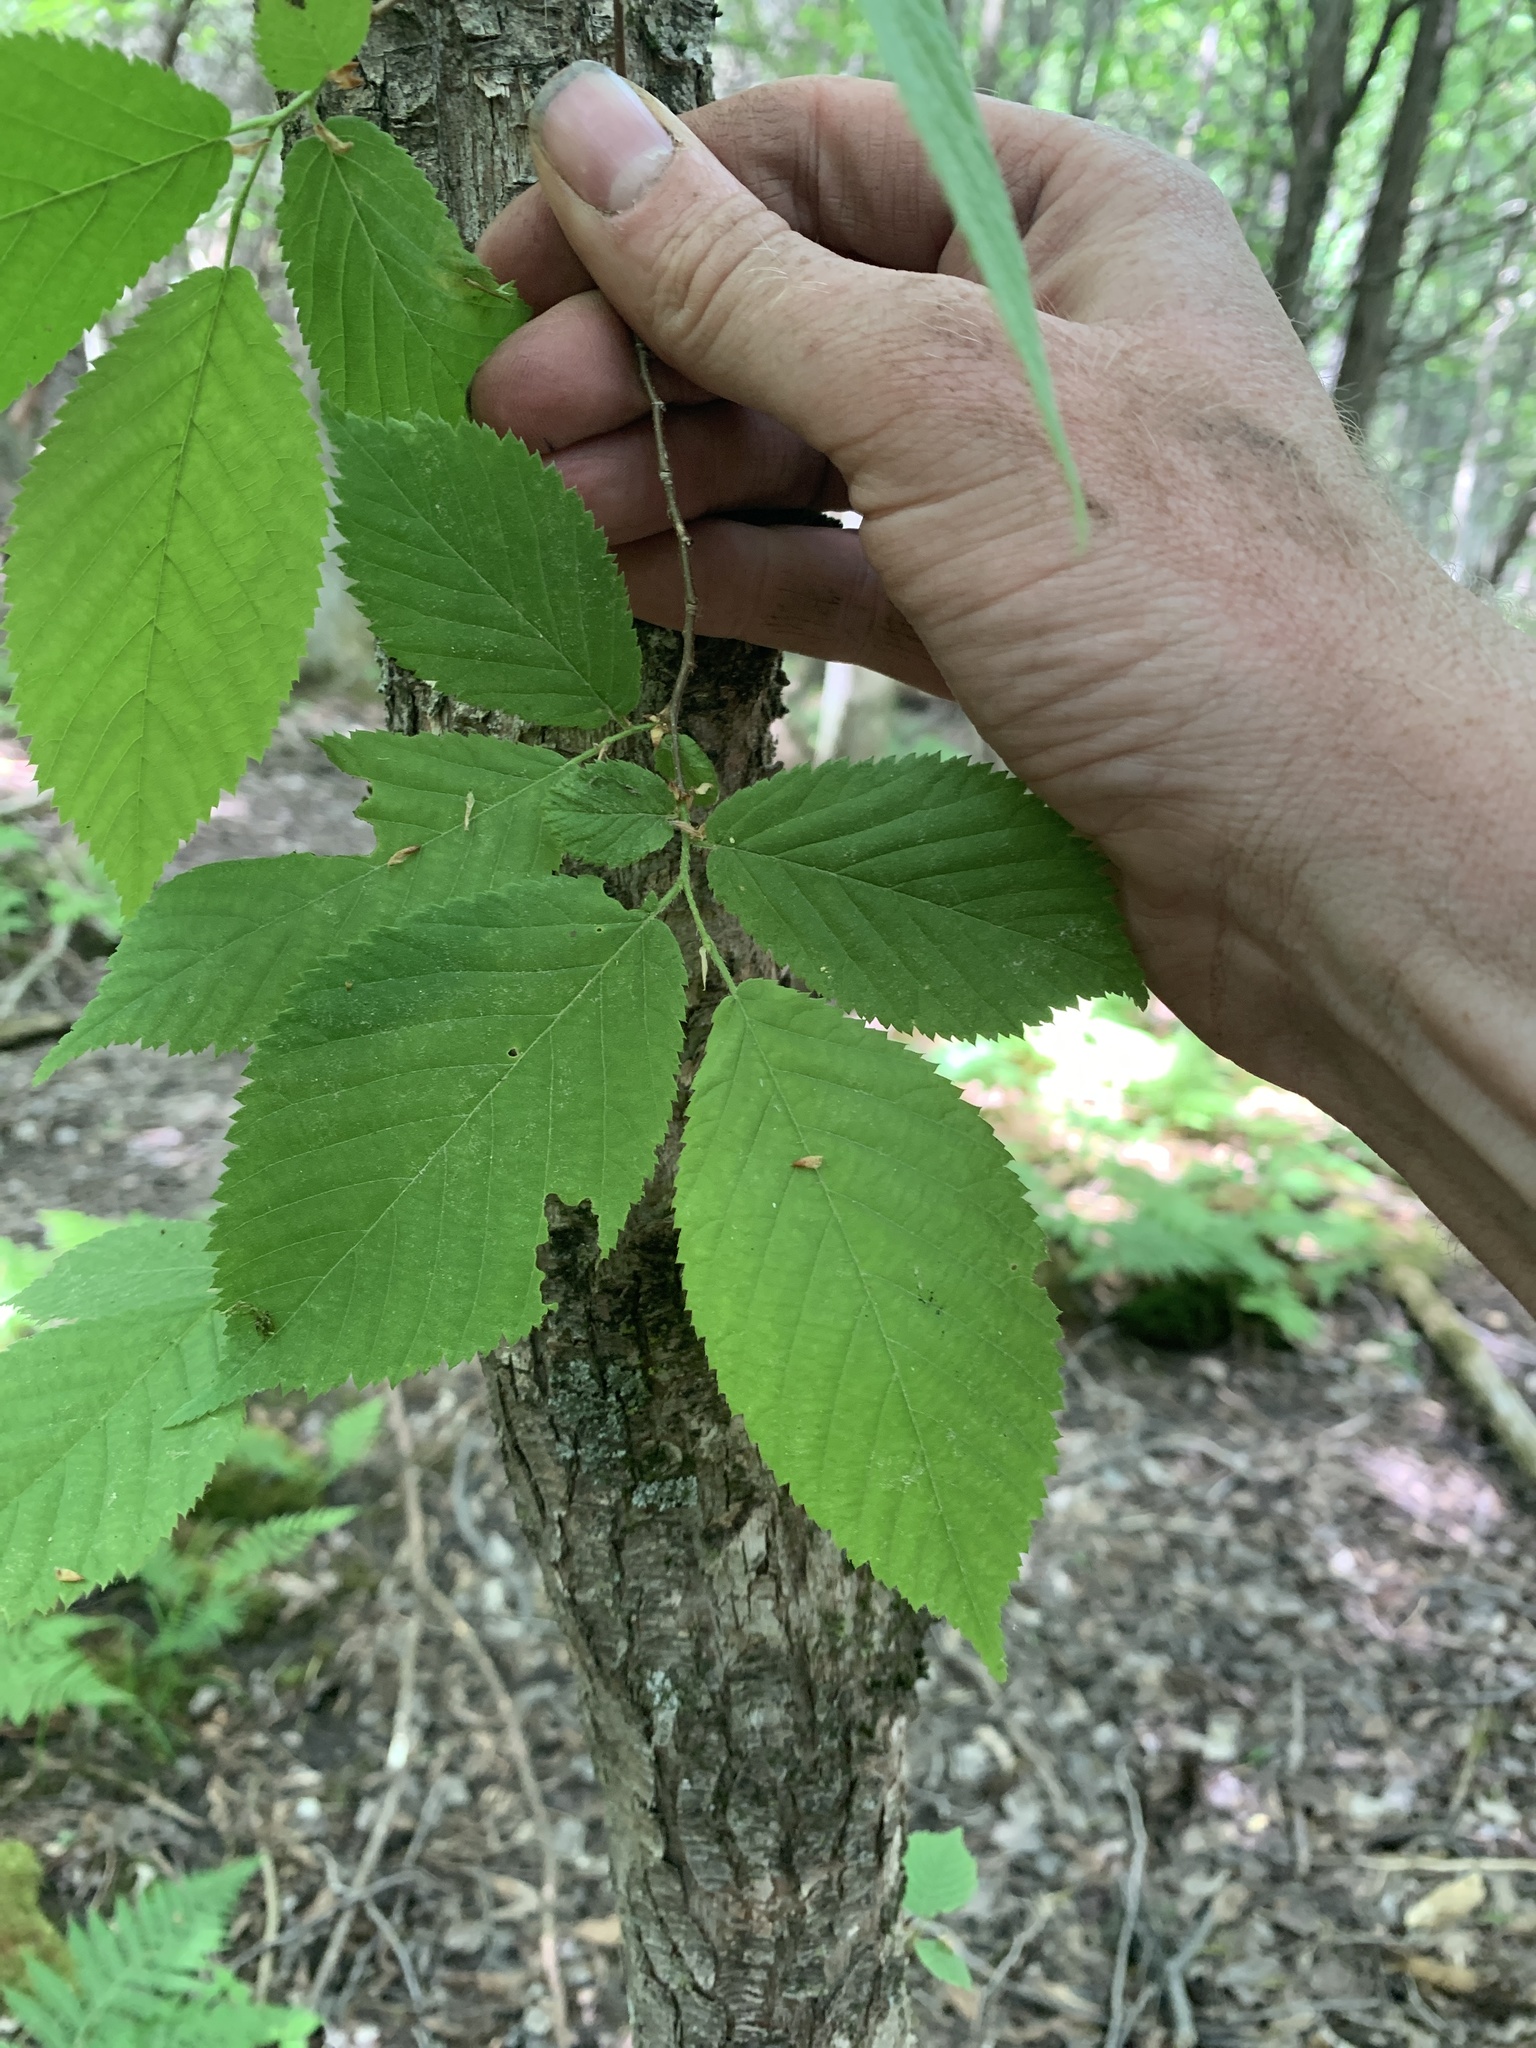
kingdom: Plantae
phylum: Tracheophyta
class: Magnoliopsida
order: Fagales
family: Betulaceae
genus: Ostrya
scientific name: Ostrya virginiana
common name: Ironwood
